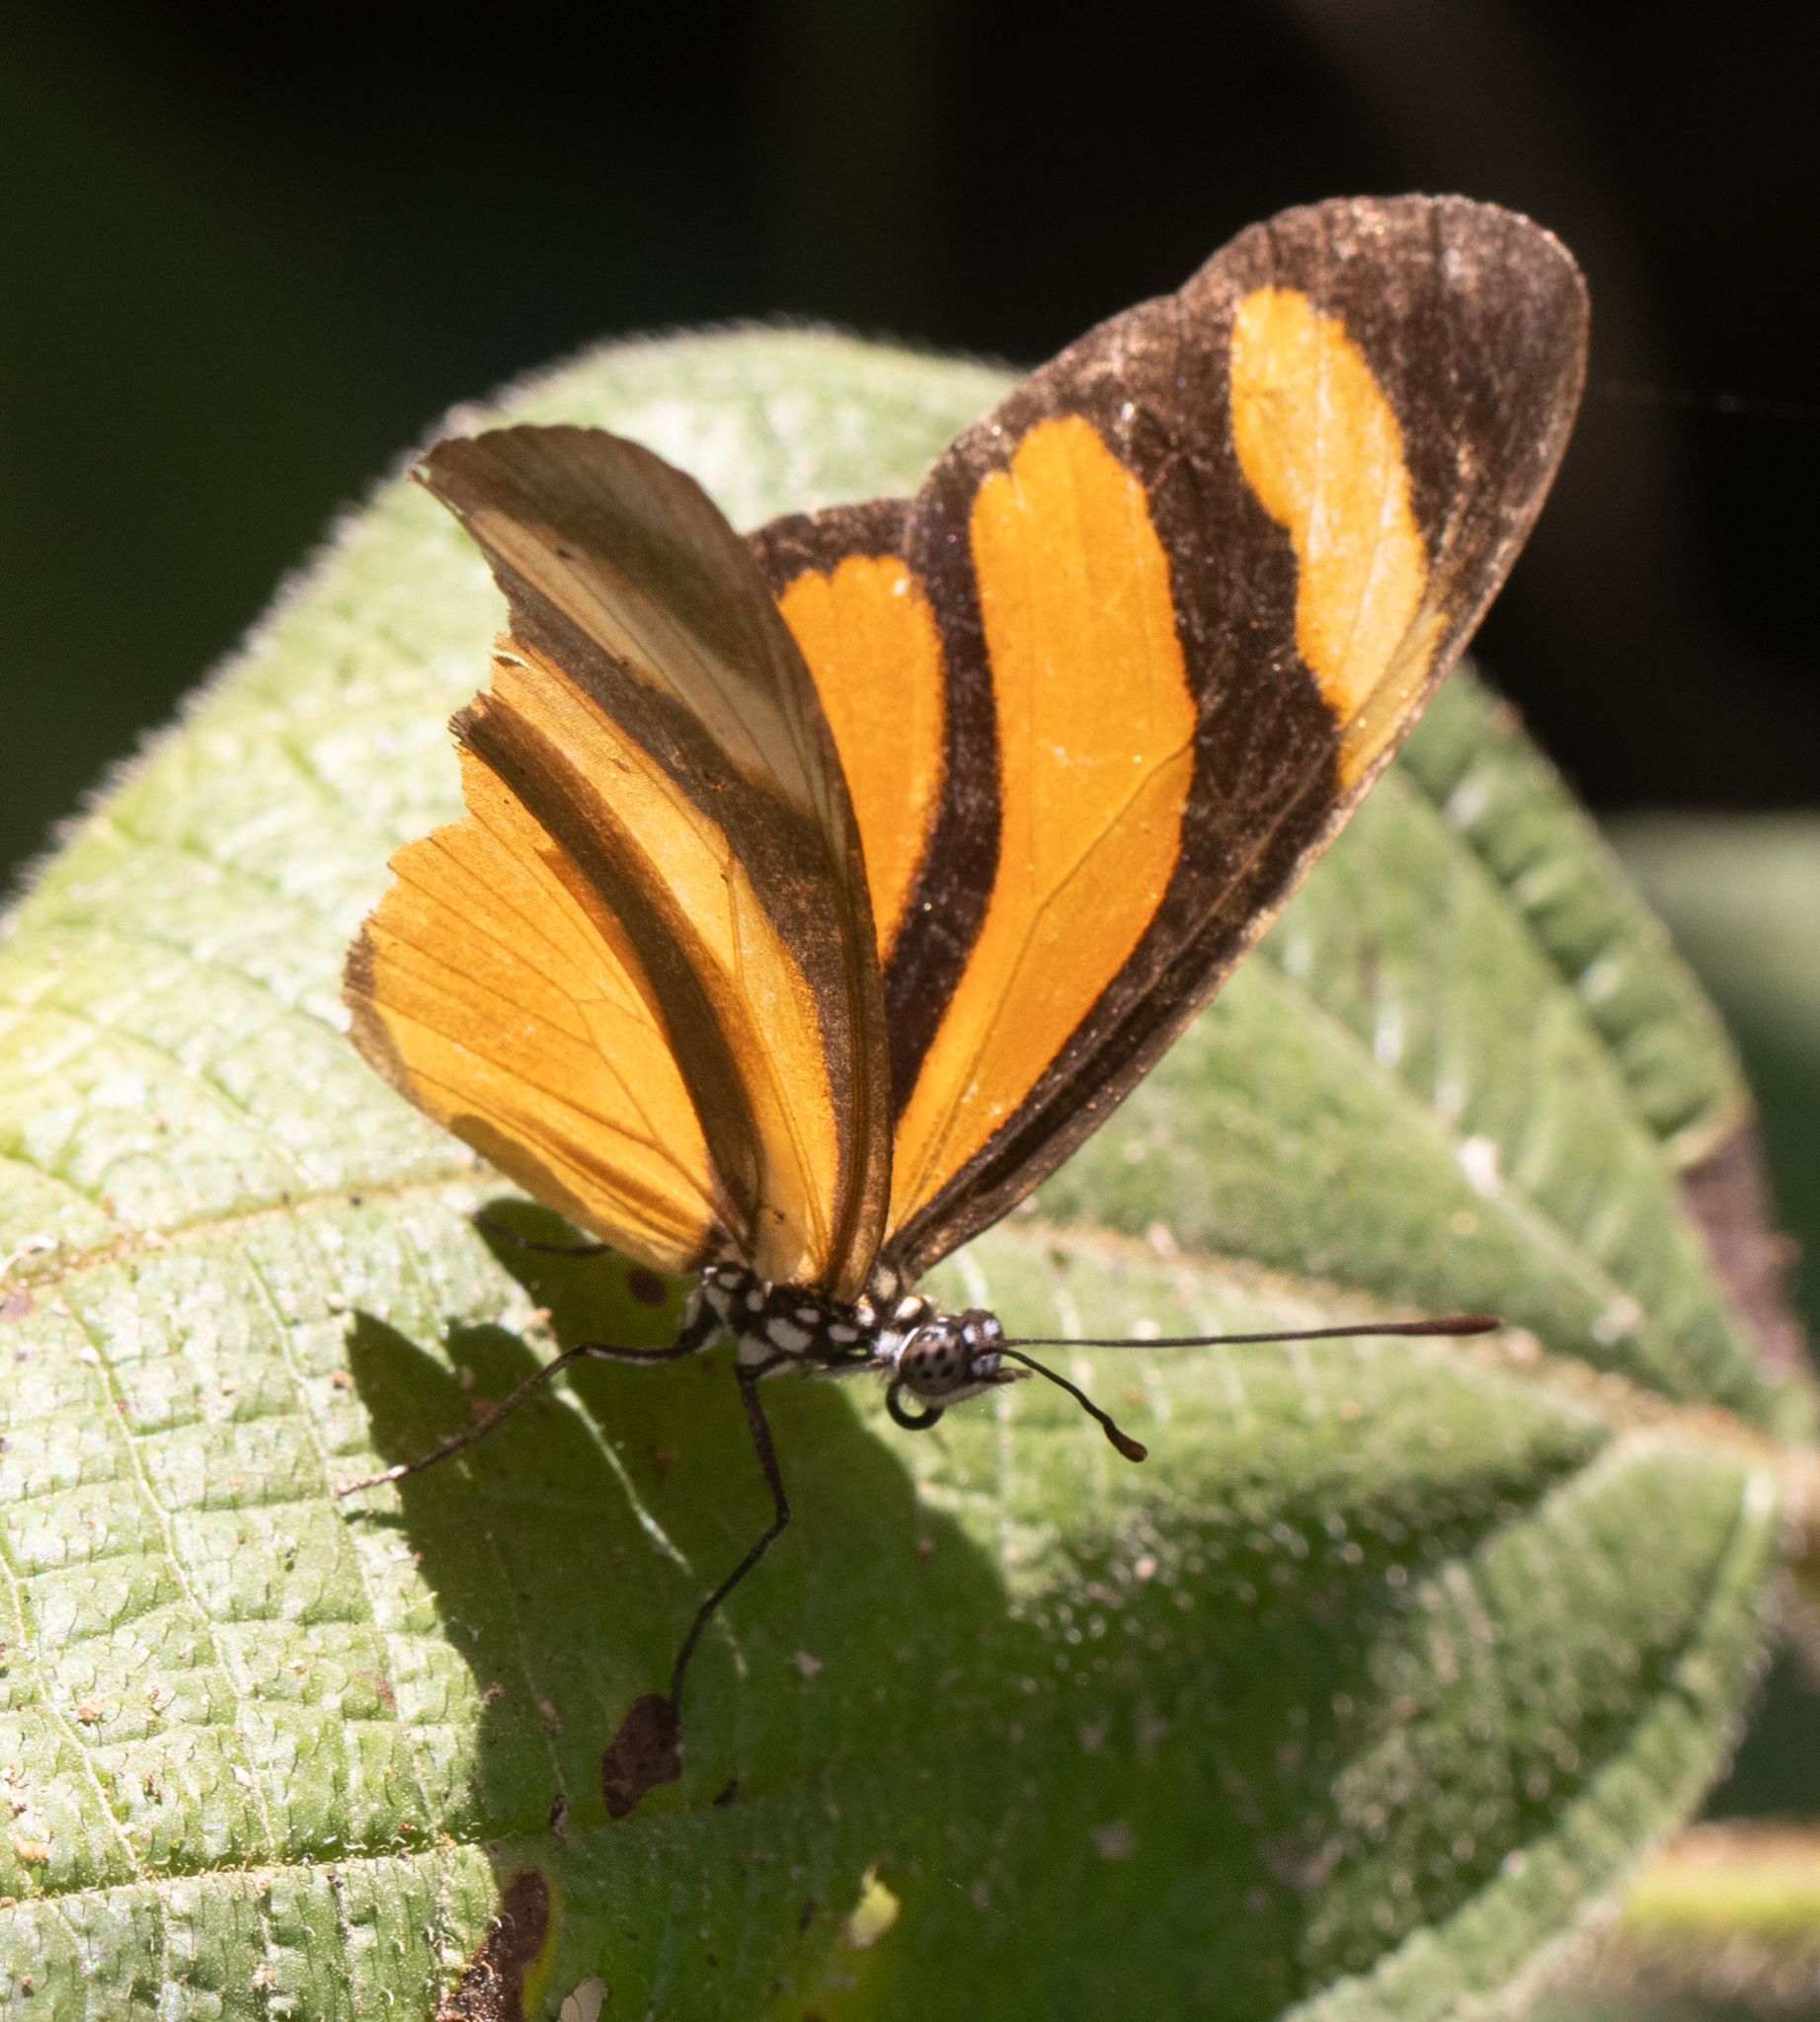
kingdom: Animalia
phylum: Arthropoda
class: Insecta
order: Lepidoptera
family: Nymphalidae
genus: Eueides
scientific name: Eueides olympia
